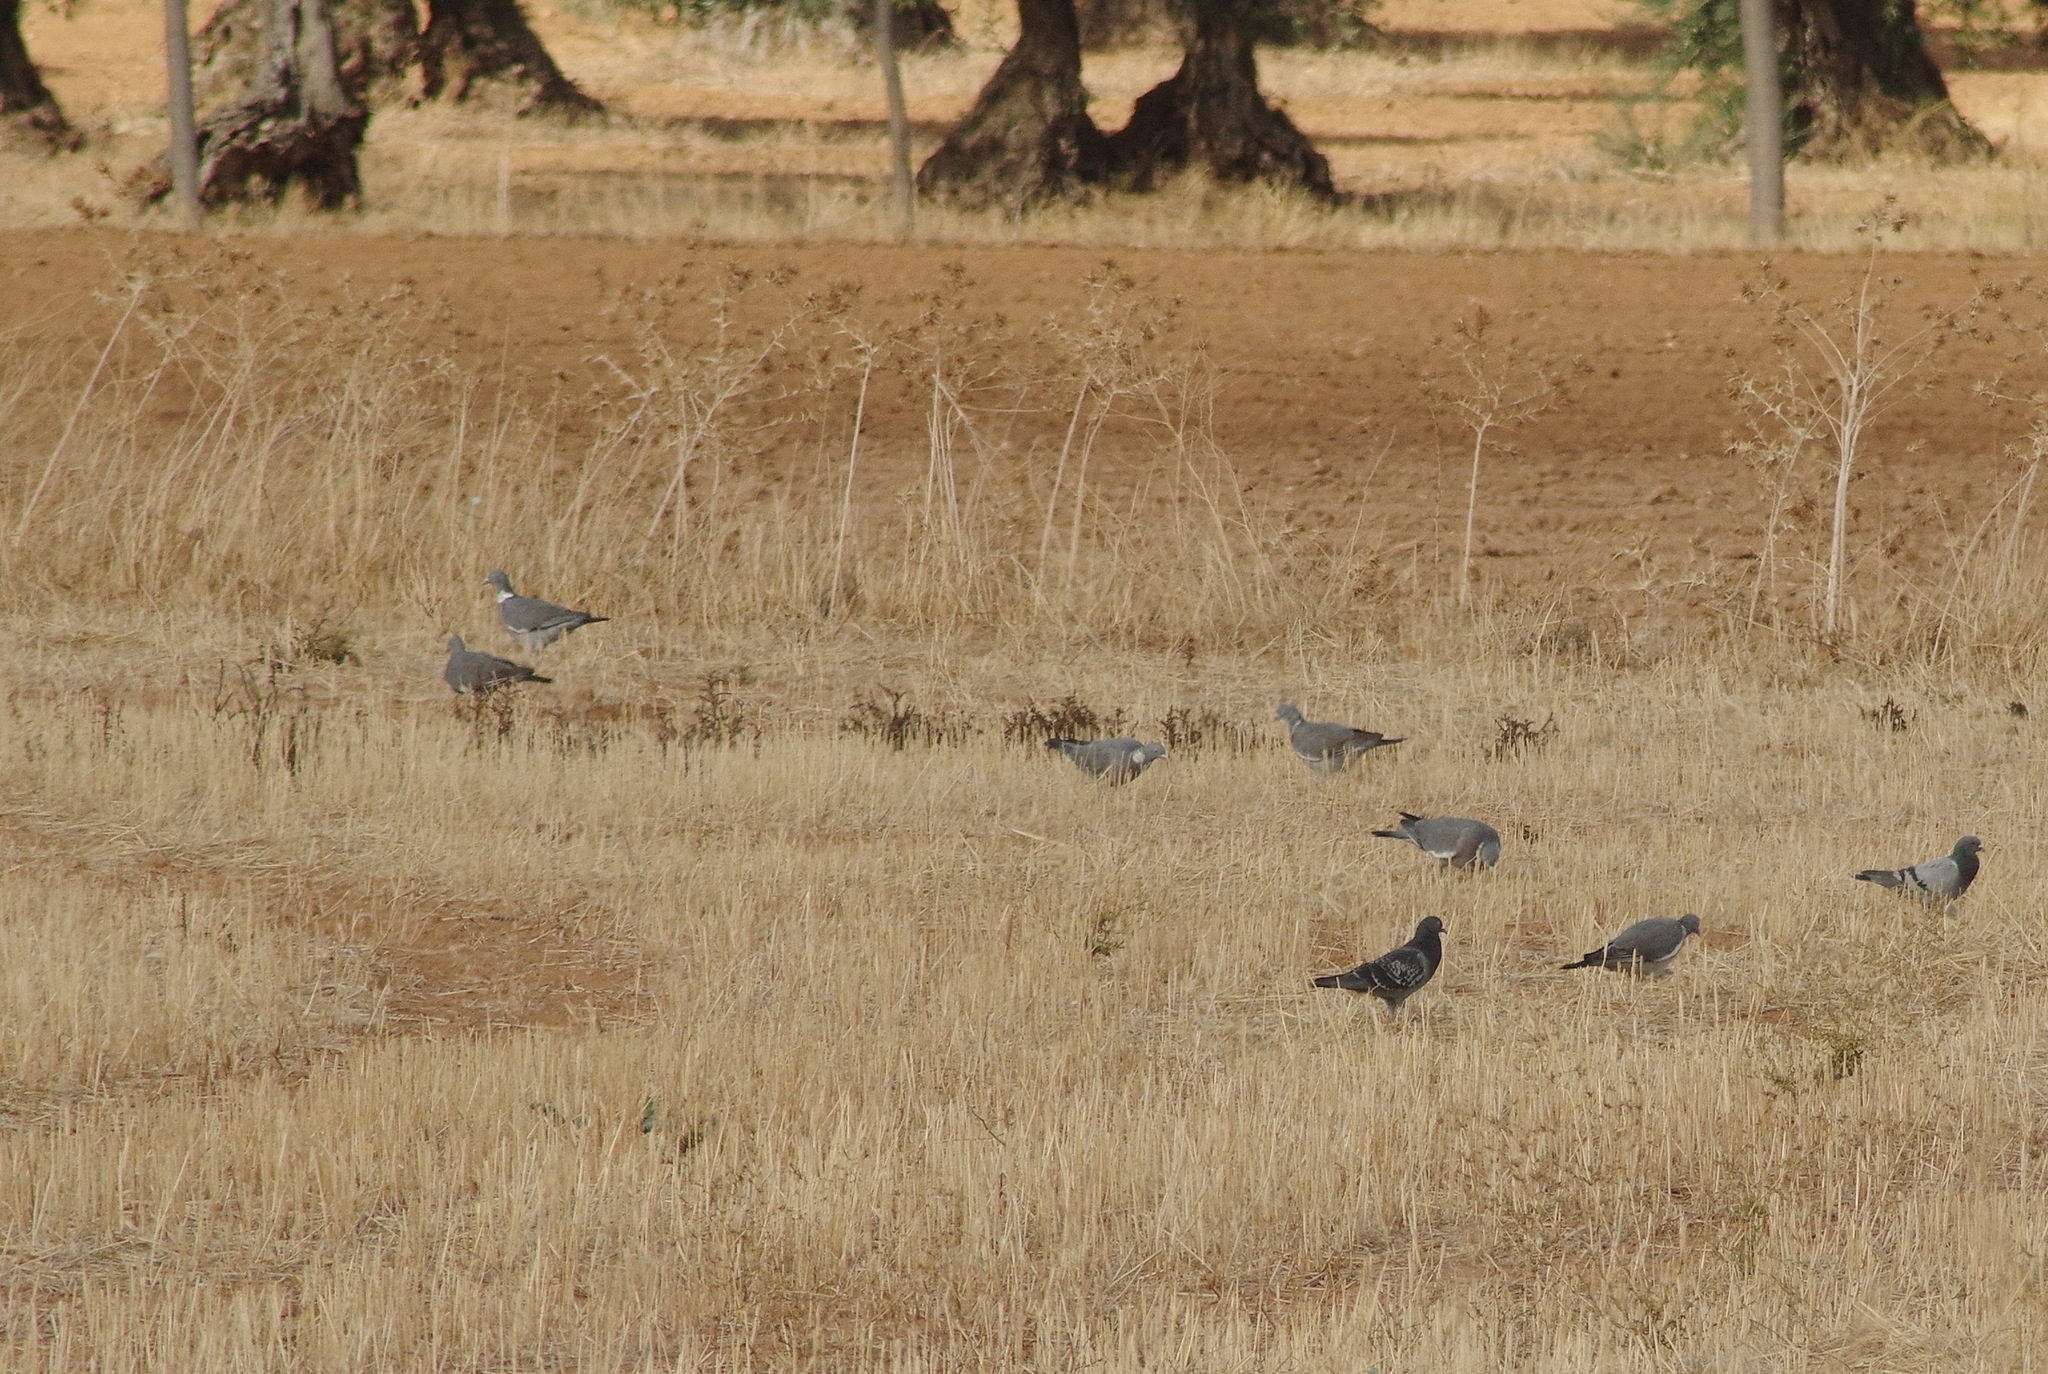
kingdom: Animalia
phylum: Chordata
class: Aves
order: Columbiformes
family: Columbidae
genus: Columba
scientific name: Columba palumbus
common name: Common wood pigeon
